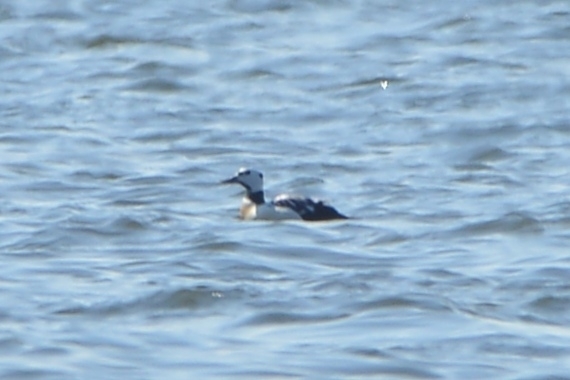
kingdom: Animalia
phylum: Chordata
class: Aves
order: Anseriformes
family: Anatidae
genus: Polysticta
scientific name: Polysticta stelleri
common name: Steller's eider
